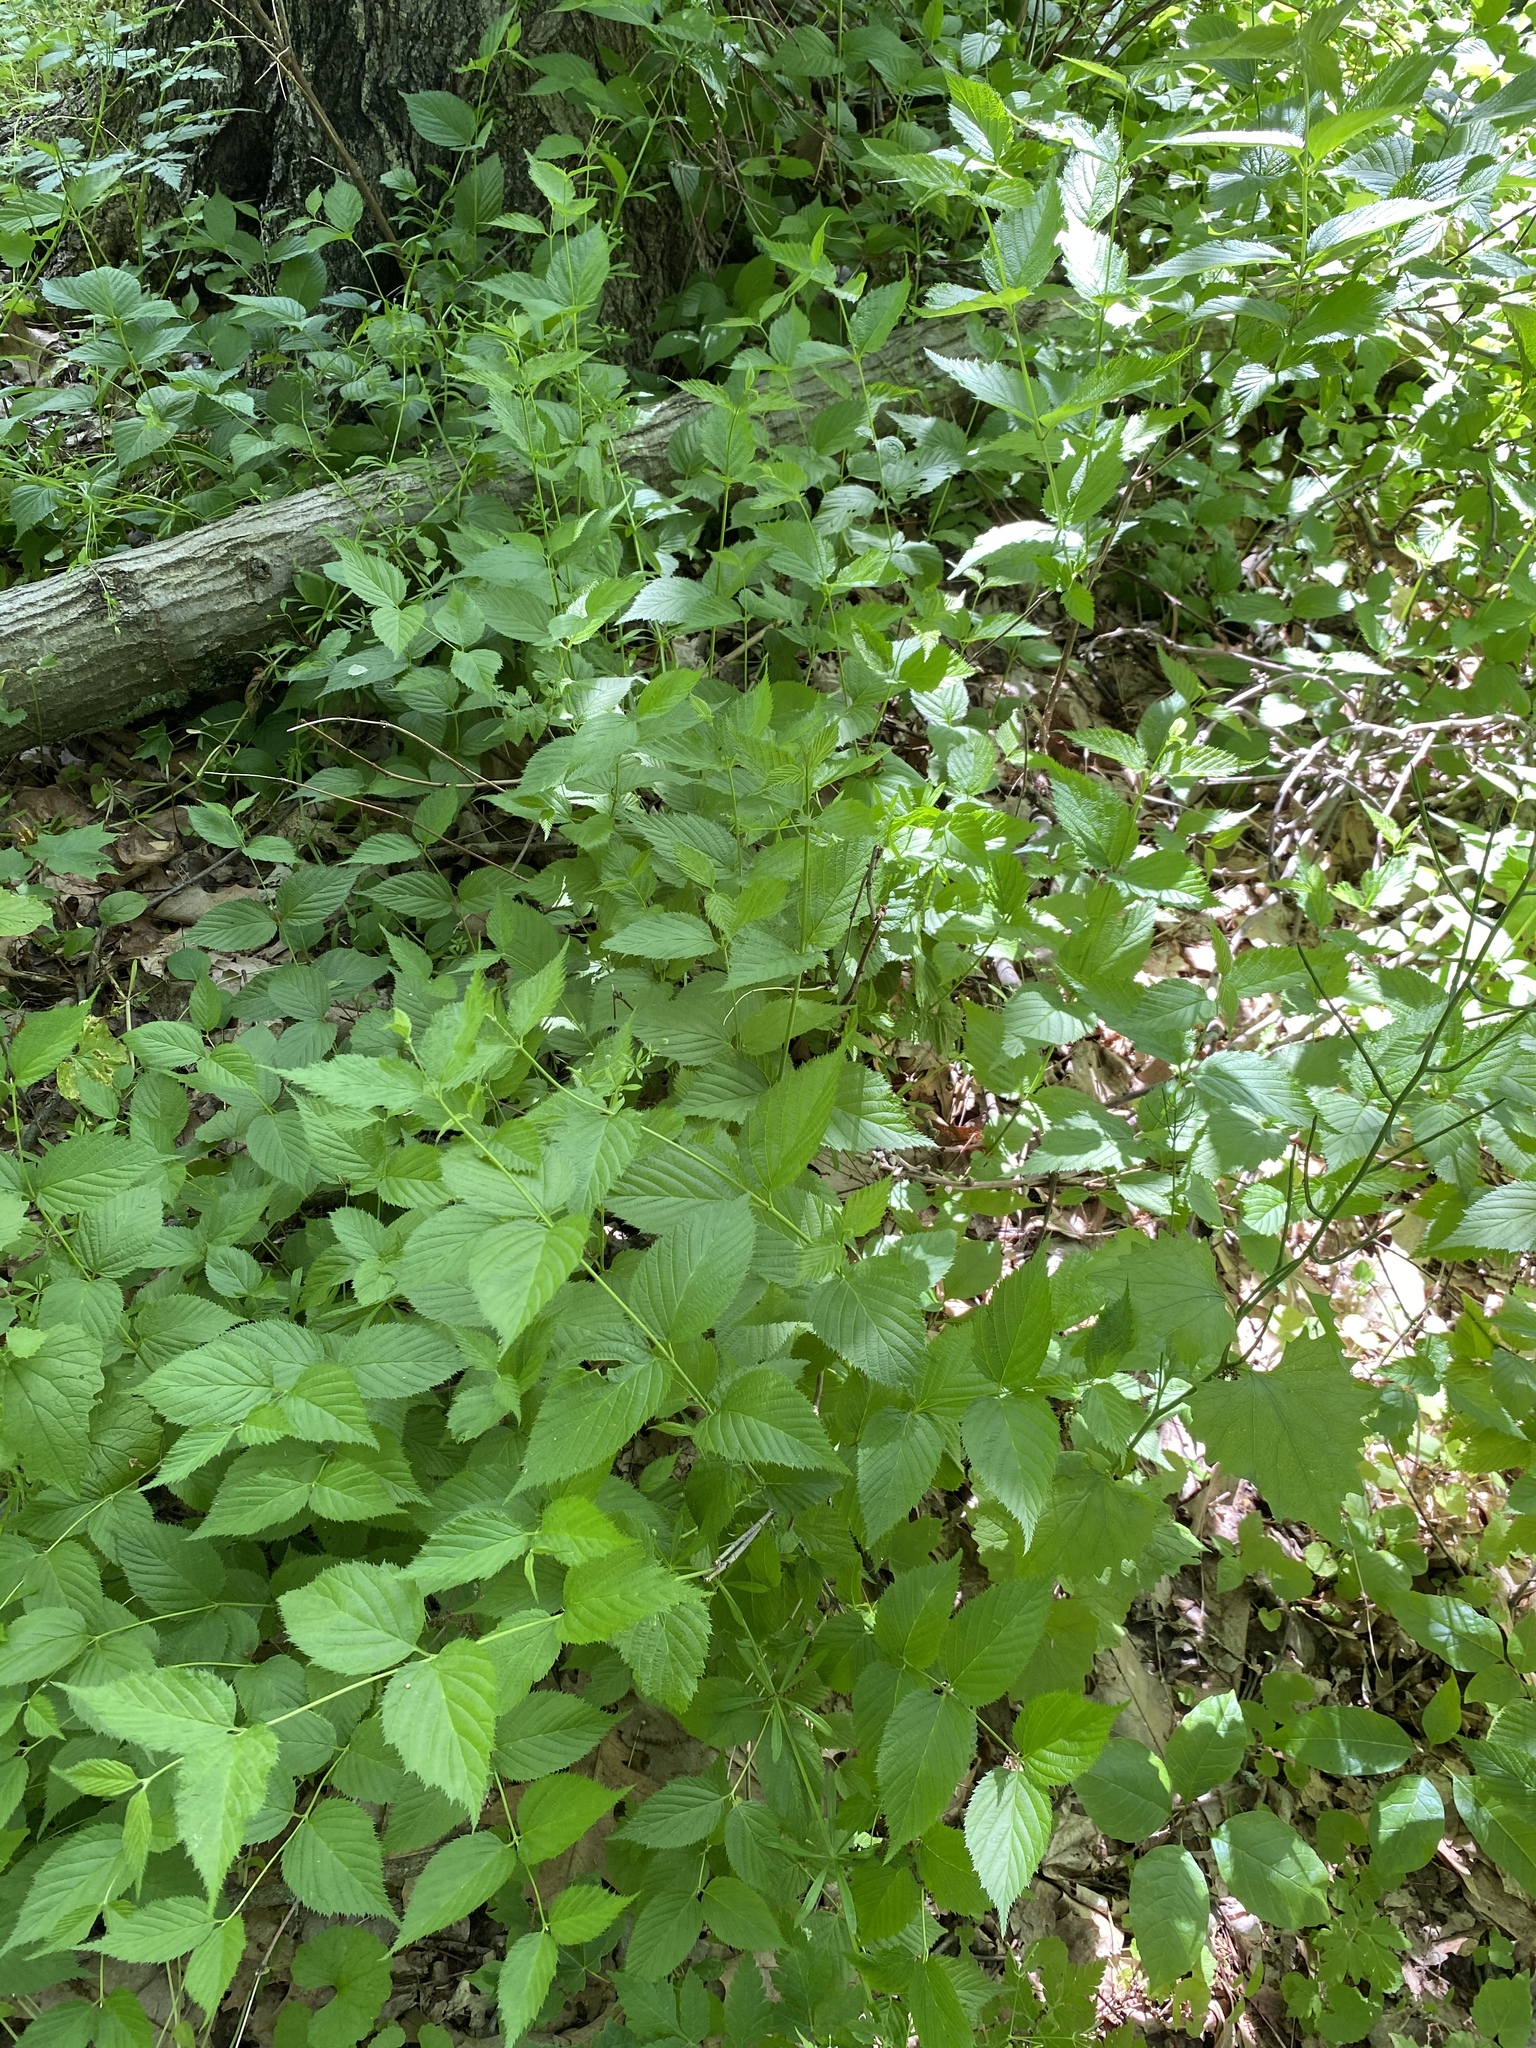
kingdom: Plantae
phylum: Tracheophyta
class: Magnoliopsida
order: Rosales
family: Rosaceae
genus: Rhodotypos
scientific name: Rhodotypos scandens
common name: Jetbead
